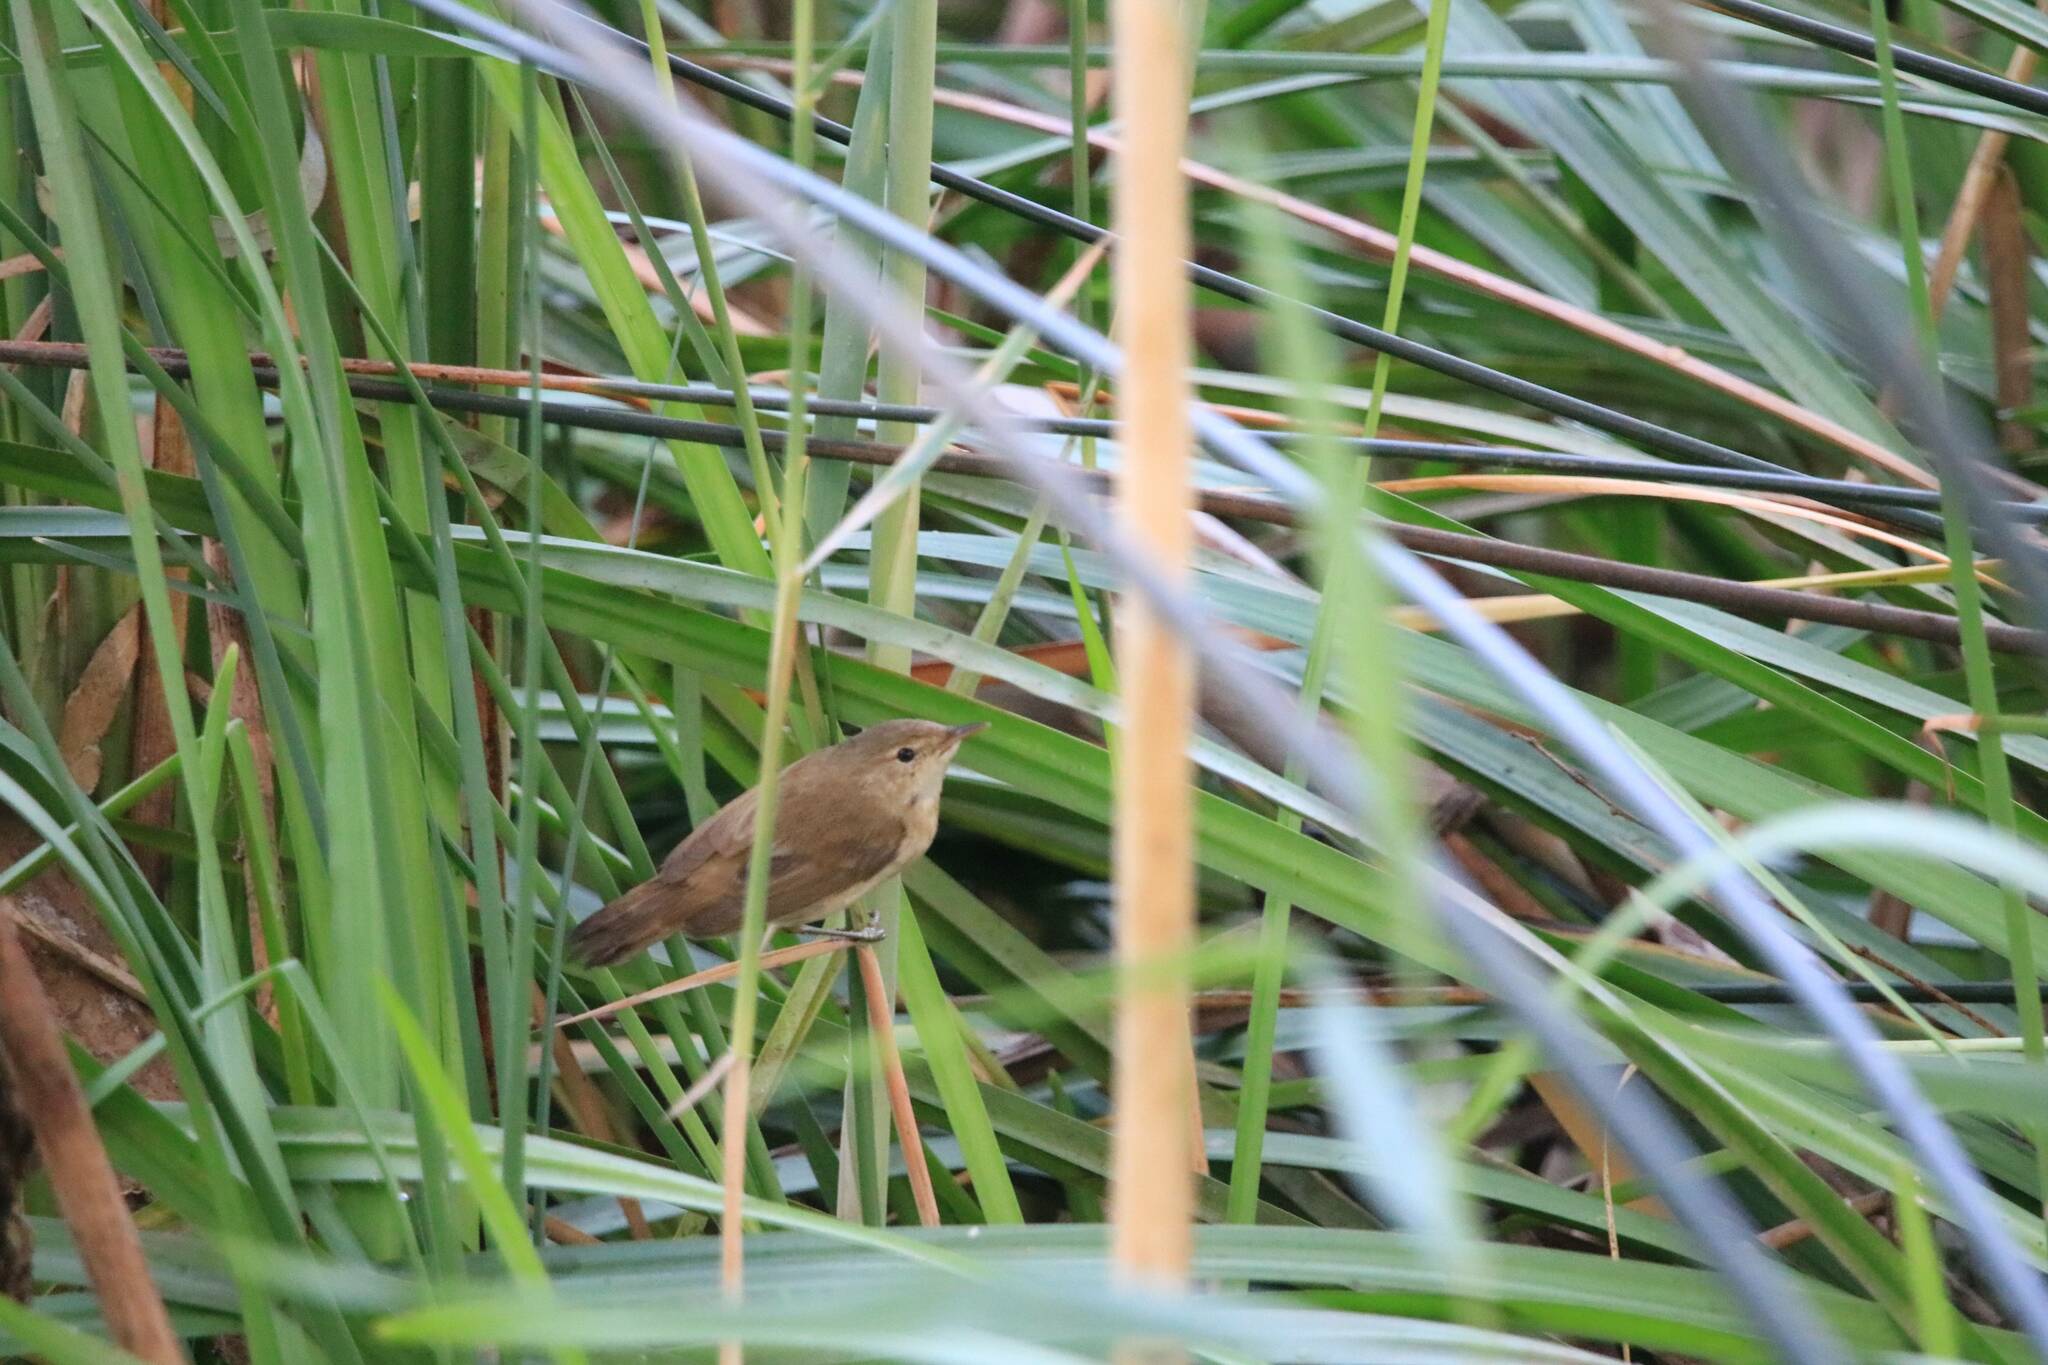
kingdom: Animalia
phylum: Chordata
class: Aves
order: Passeriformes
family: Acrocephalidae
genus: Acrocephalus
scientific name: Acrocephalus scirpaceus
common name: Eurasian reed warbler
